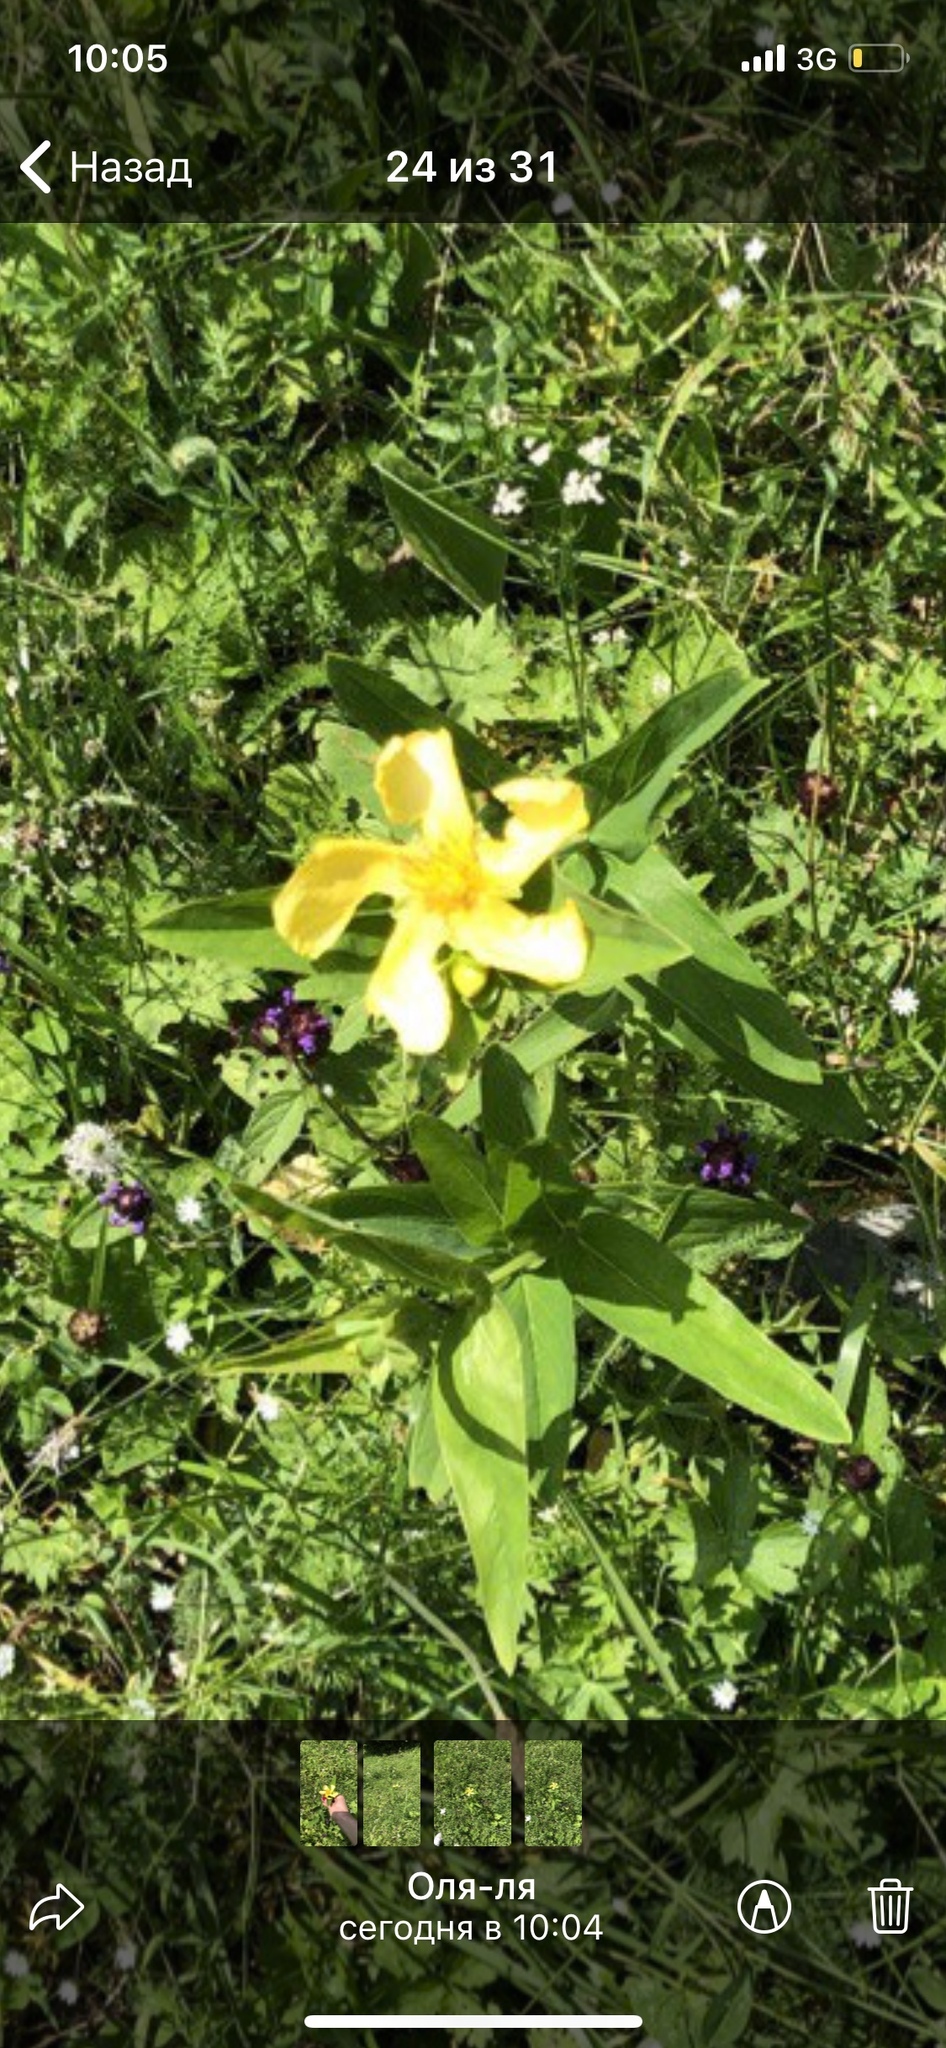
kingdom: Plantae
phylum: Tracheophyta
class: Magnoliopsida
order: Malpighiales
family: Hypericaceae
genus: Hypericum
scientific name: Hypericum ascyron
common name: Giant st. john's-wort
